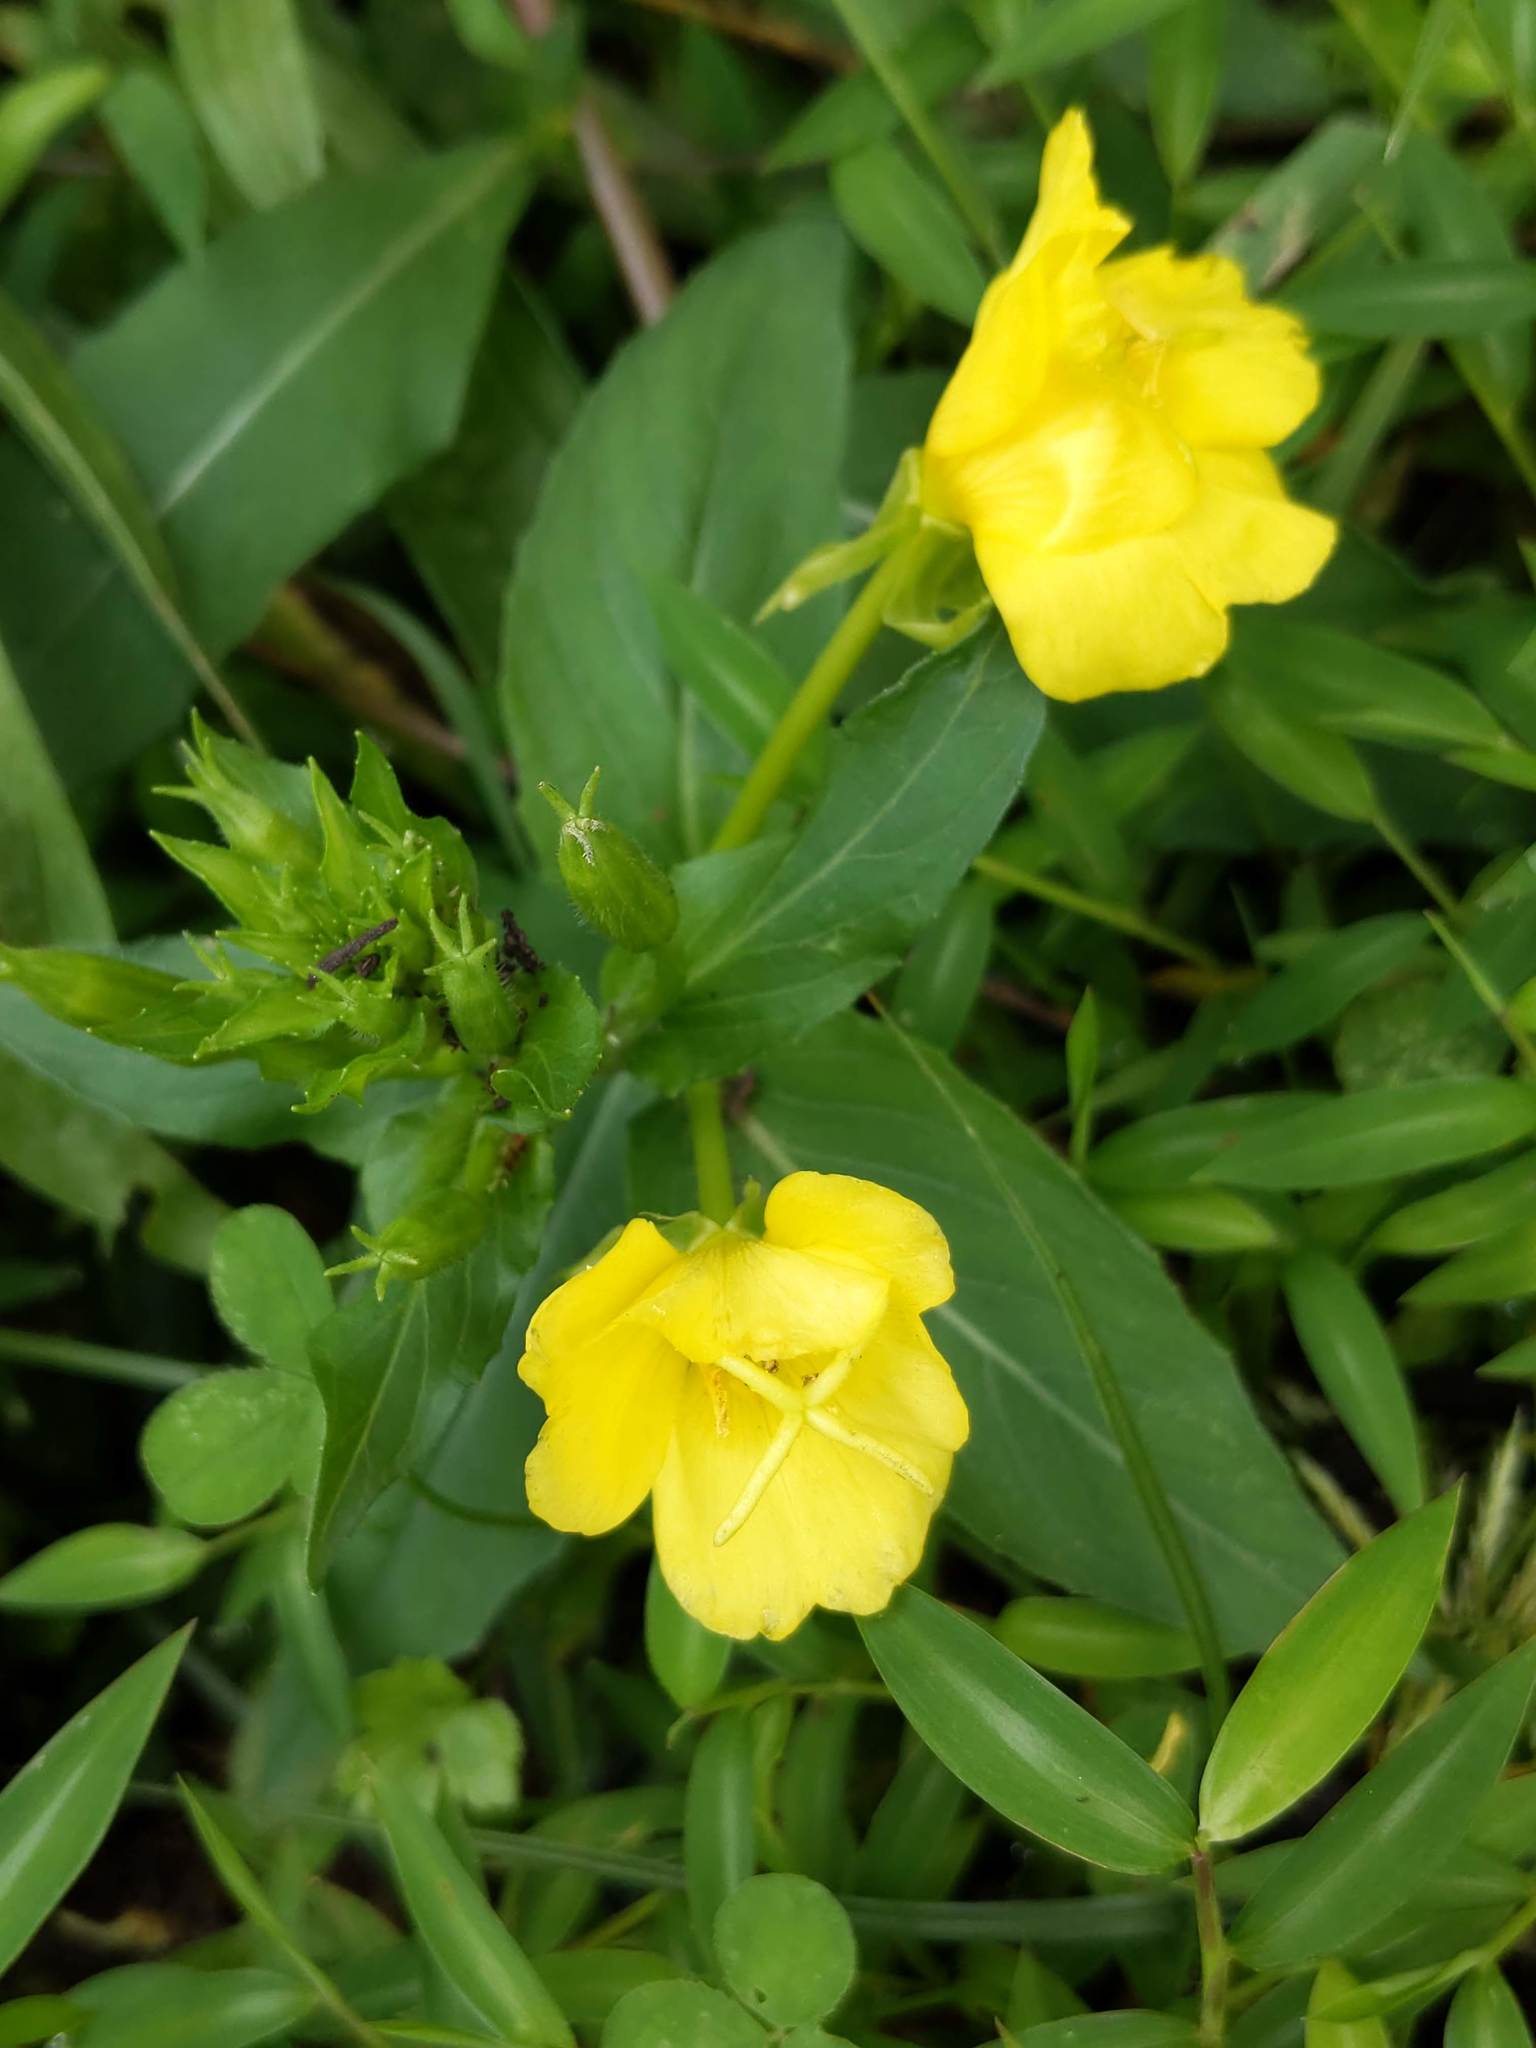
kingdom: Plantae
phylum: Tracheophyta
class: Magnoliopsida
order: Myrtales
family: Onagraceae
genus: Oenothera
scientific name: Oenothera parviflora
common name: Least evening-primrose
